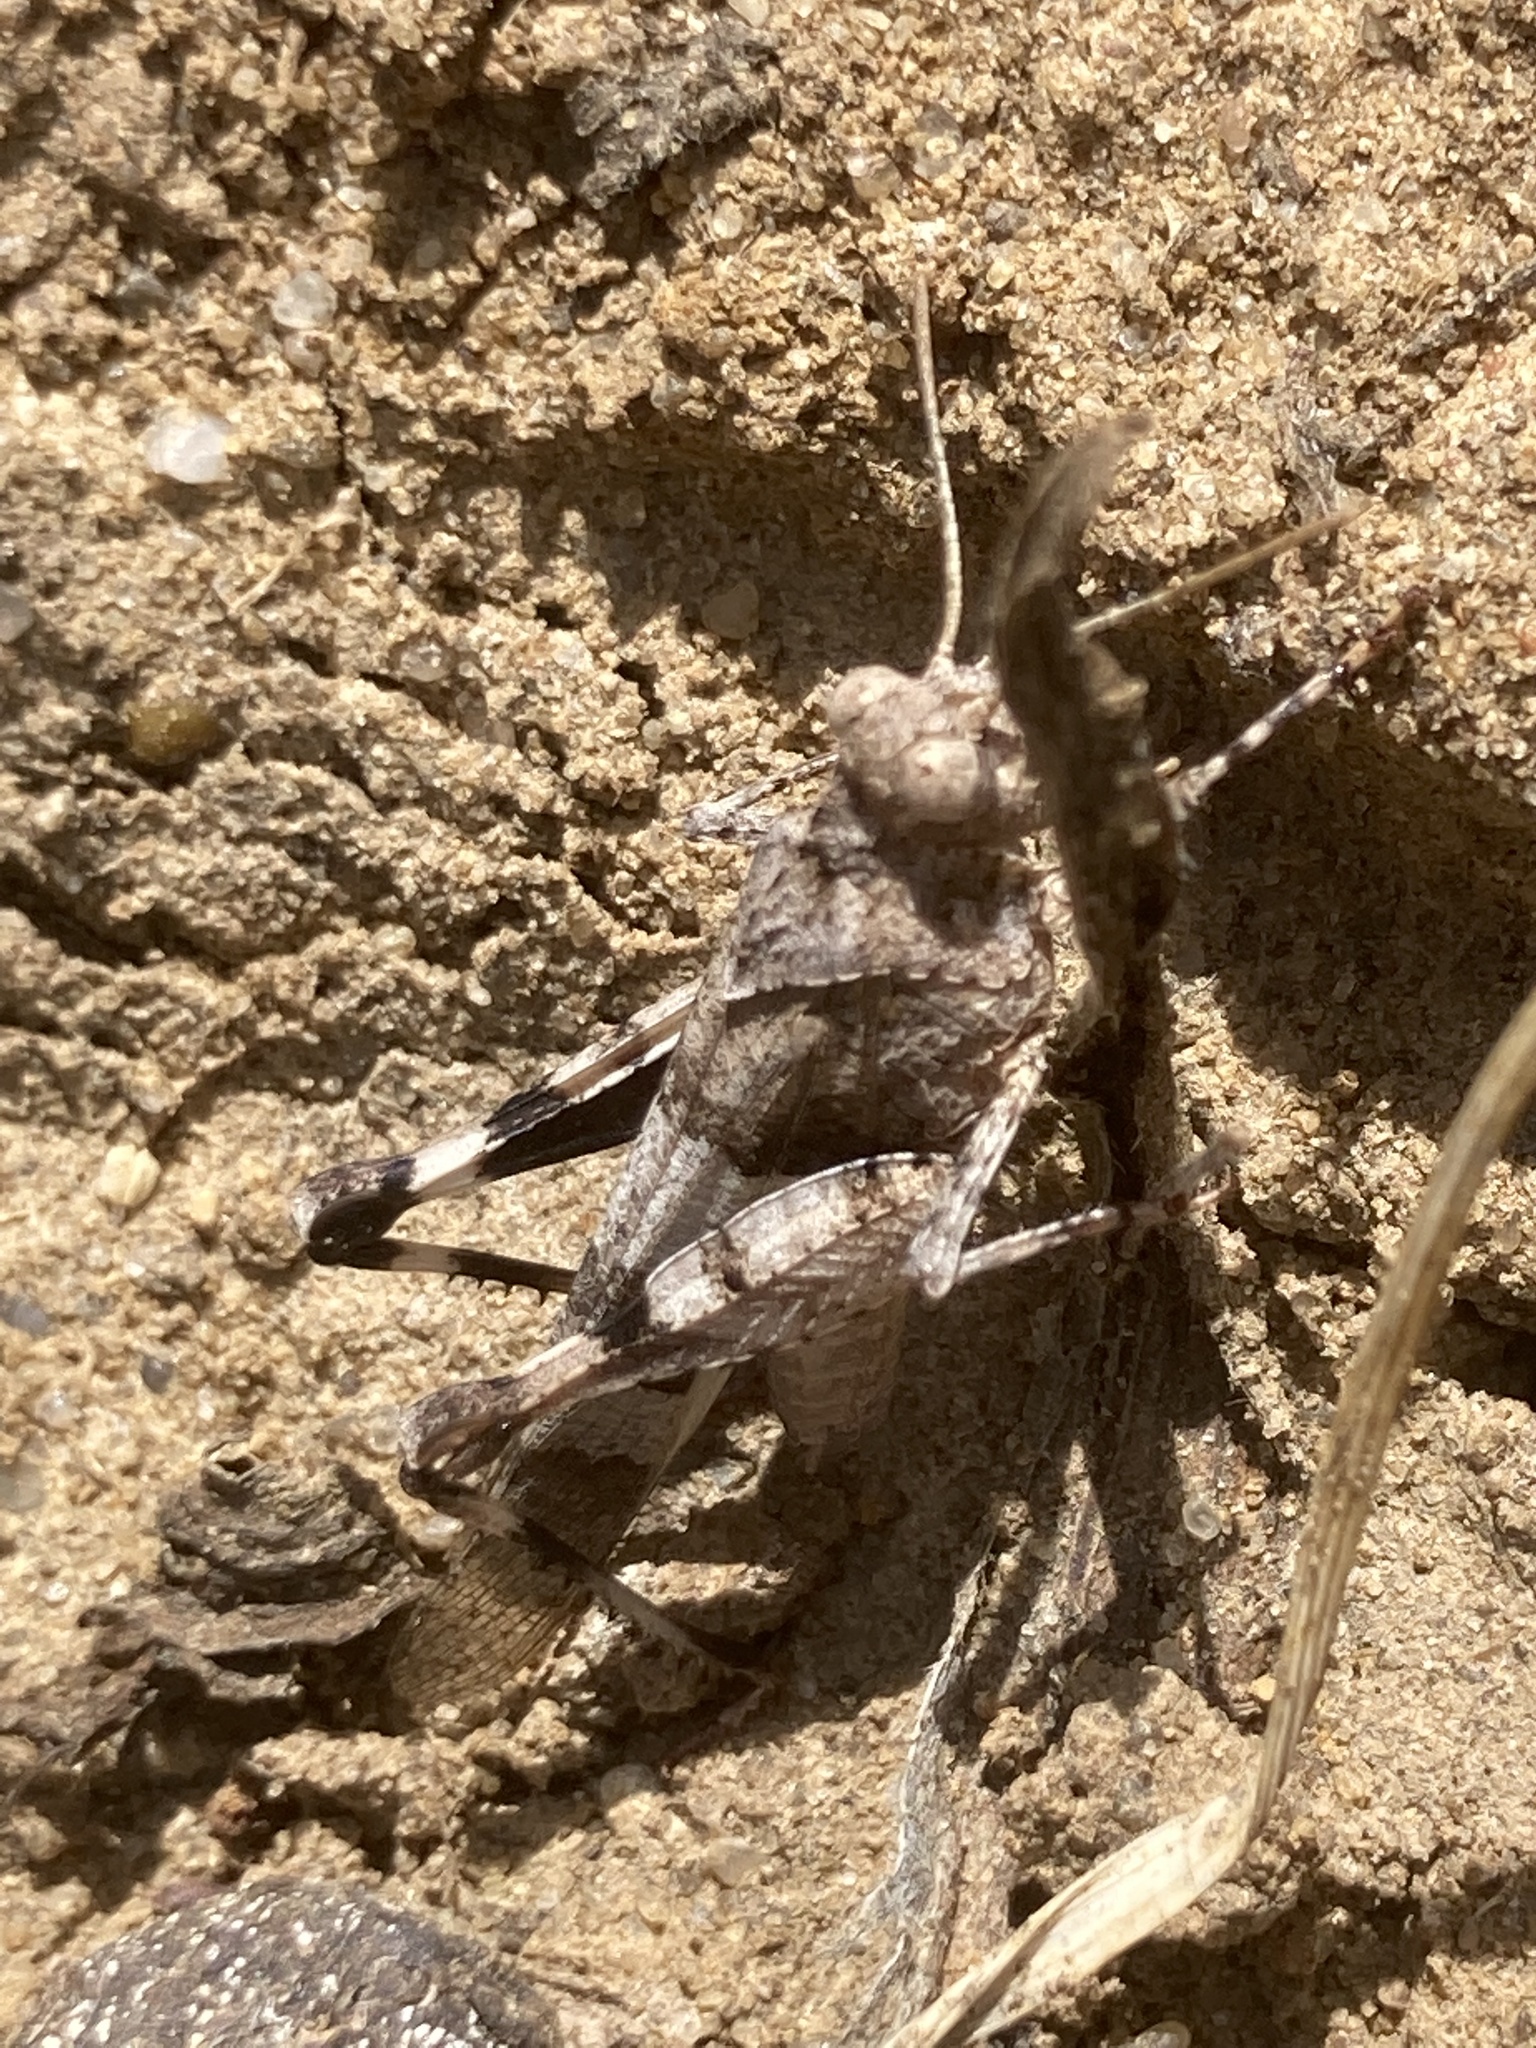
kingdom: Animalia
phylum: Arthropoda
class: Insecta
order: Orthoptera
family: Acrididae
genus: Oedipoda
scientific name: Oedipoda caerulescens
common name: Blue-winged grasshopper
